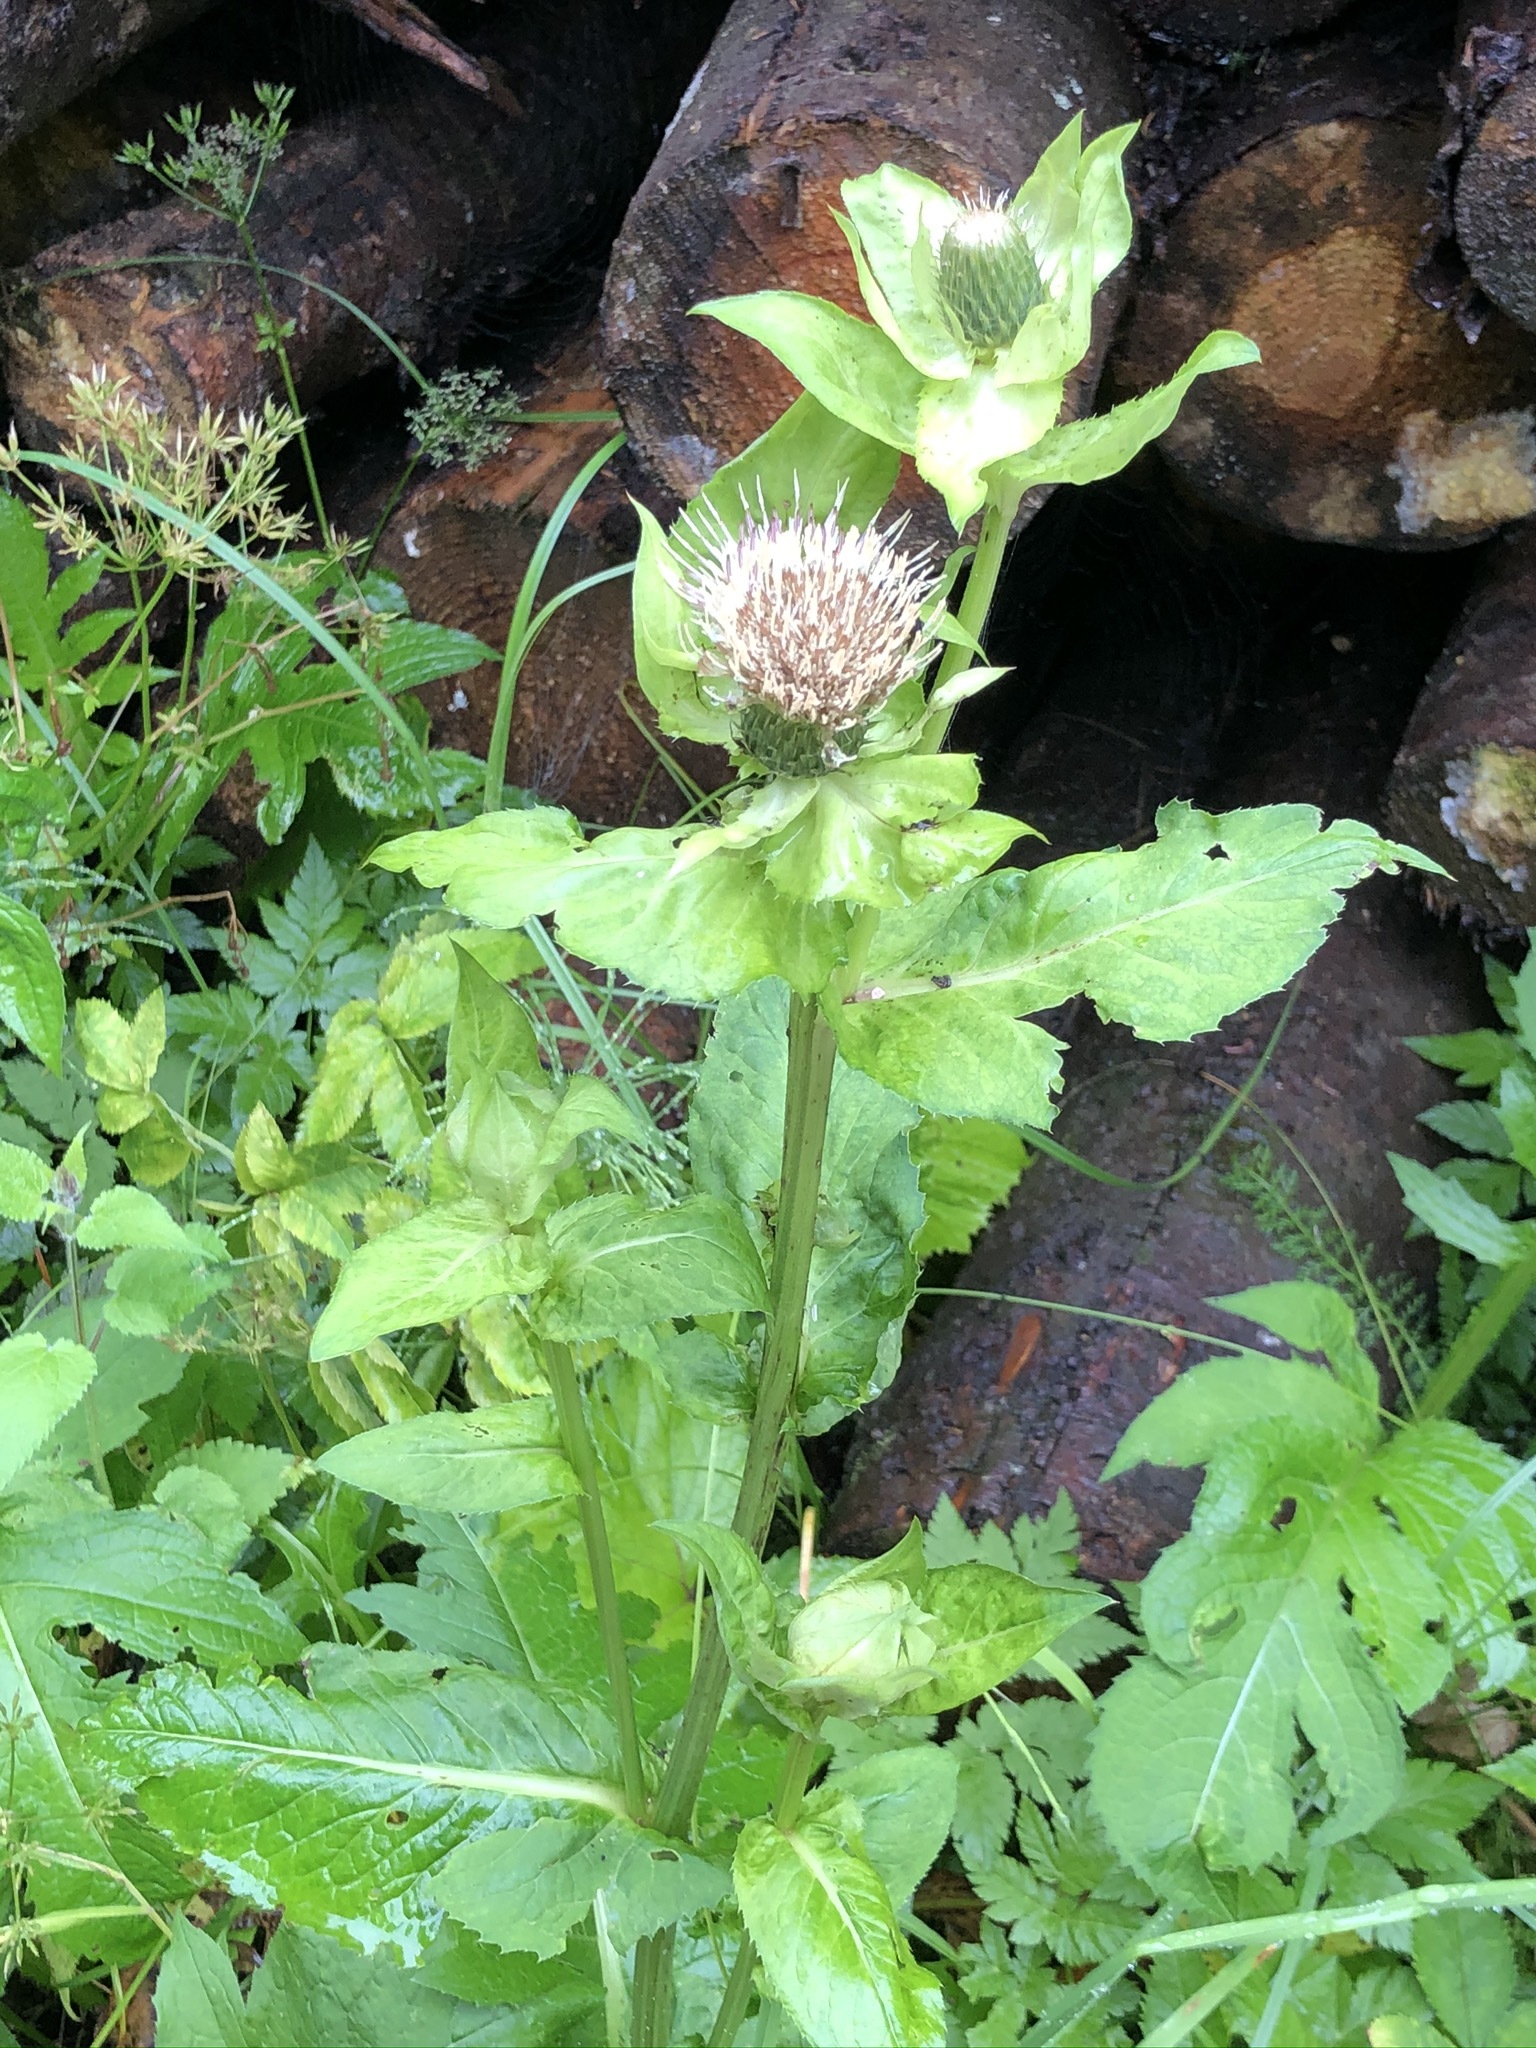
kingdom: Plantae
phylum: Tracheophyta
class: Magnoliopsida
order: Asterales
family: Asteraceae
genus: Cirsium
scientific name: Cirsium oleraceum
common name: Cabbage thistle
